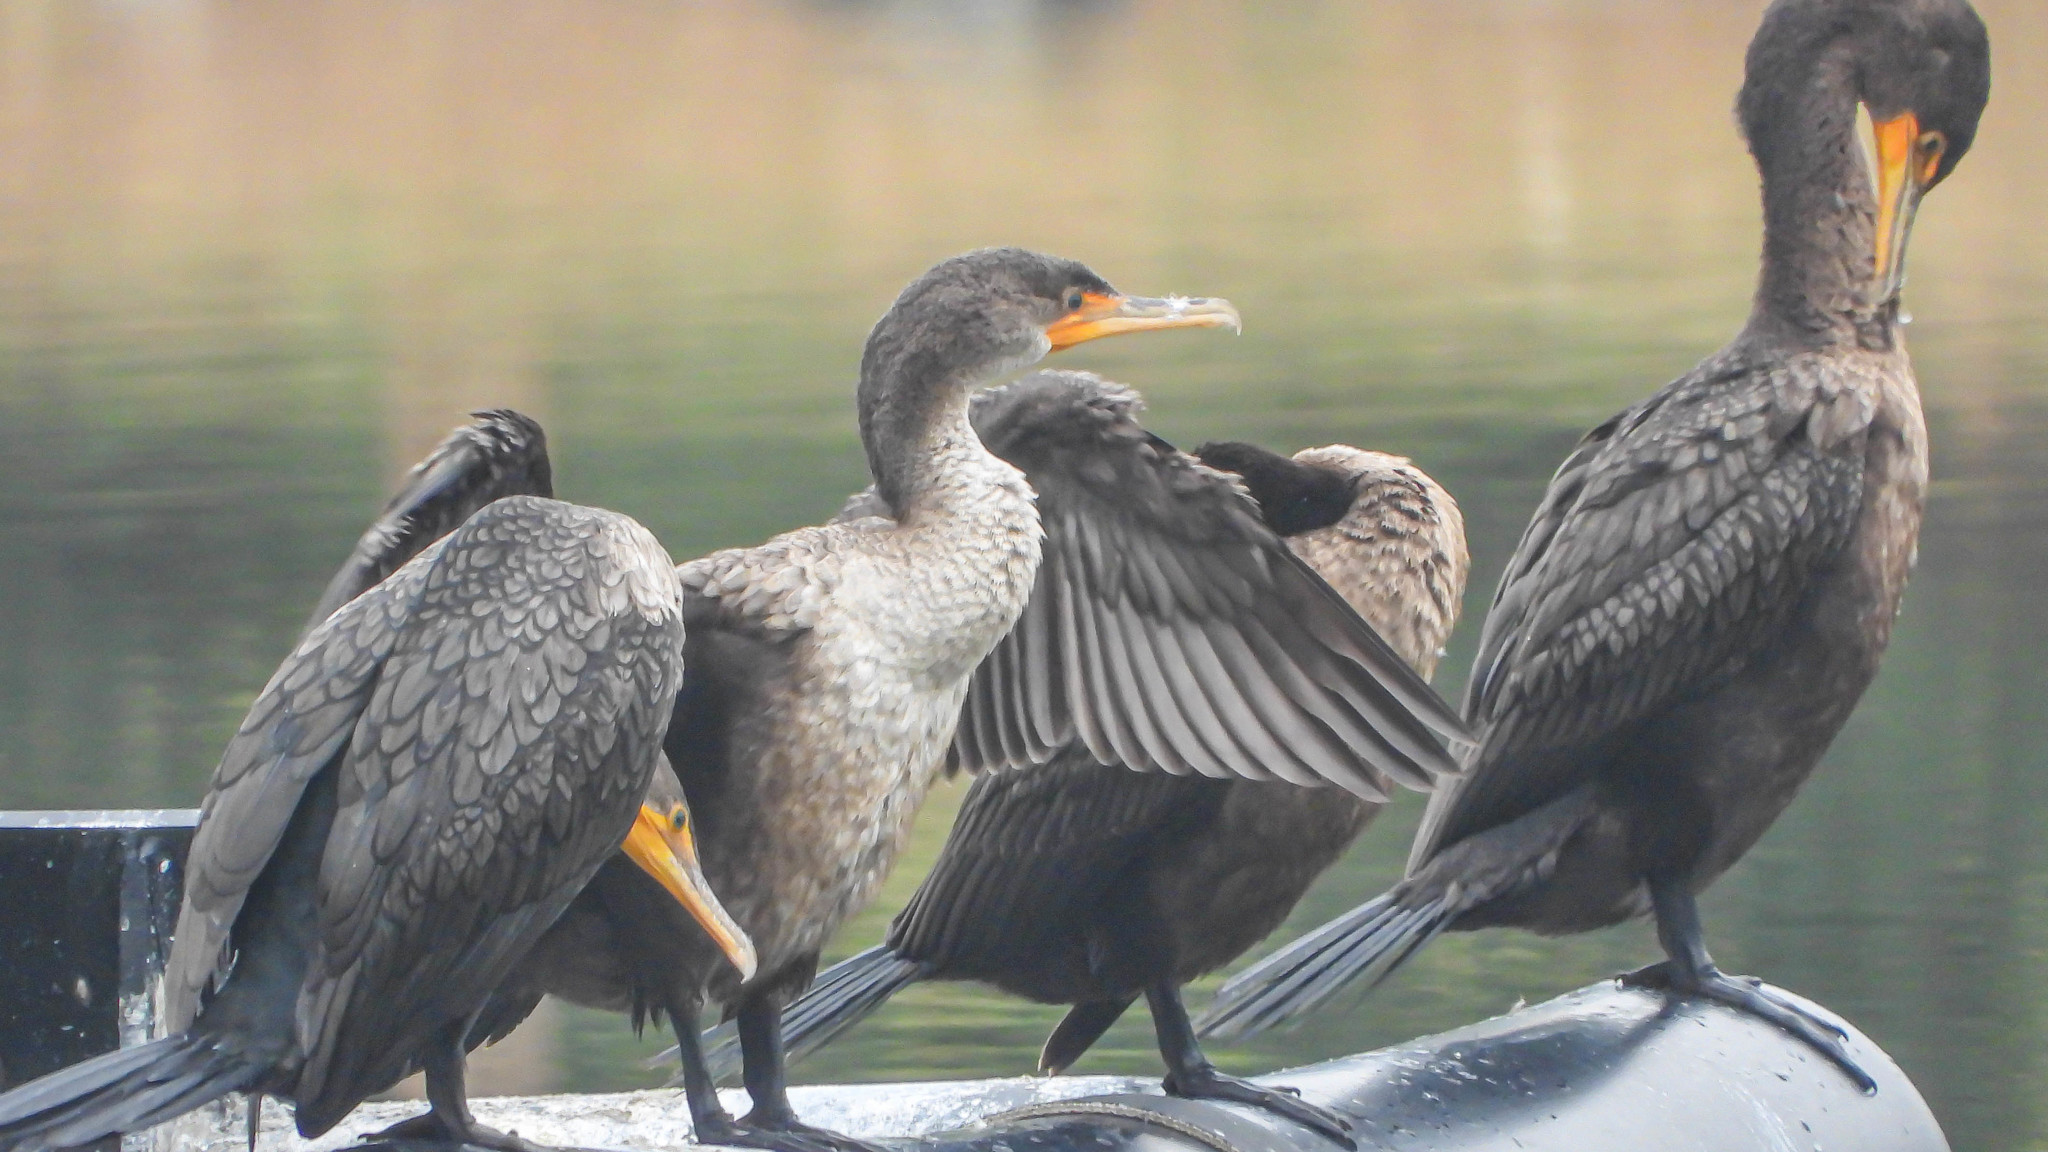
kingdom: Animalia
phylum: Chordata
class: Aves
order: Suliformes
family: Phalacrocoracidae
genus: Phalacrocorax
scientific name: Phalacrocorax auritus
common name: Double-crested cormorant
